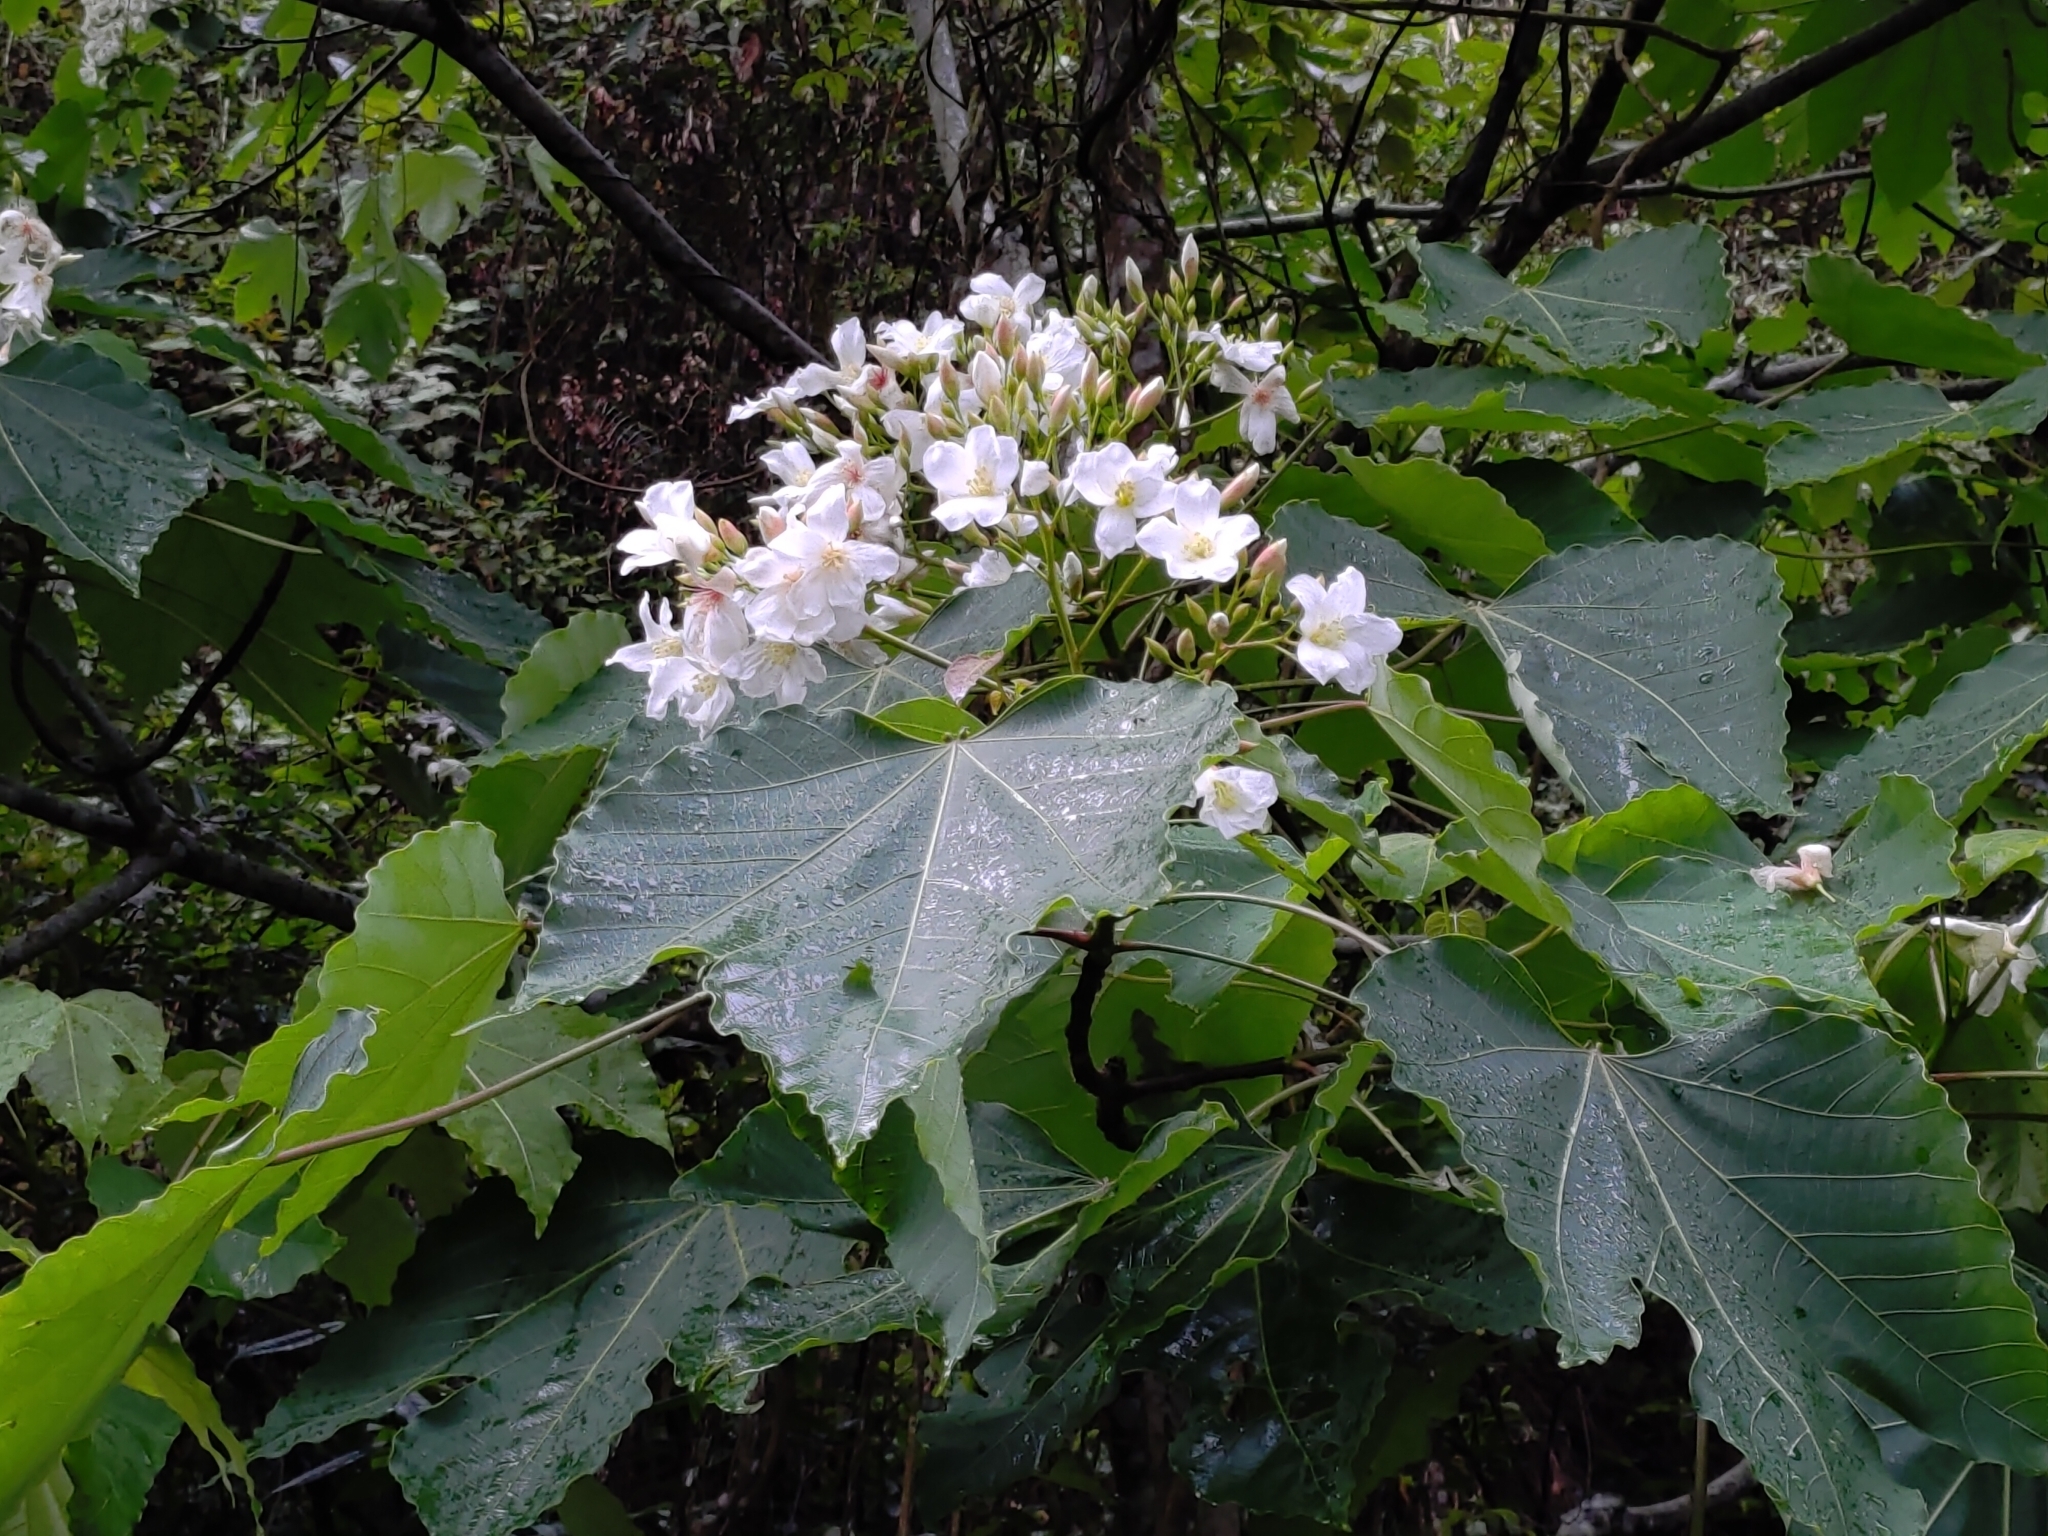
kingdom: Plantae
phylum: Tracheophyta
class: Magnoliopsida
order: Malpighiales
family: Euphorbiaceae
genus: Vernicia
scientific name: Vernicia montana
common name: Mu oil tree
